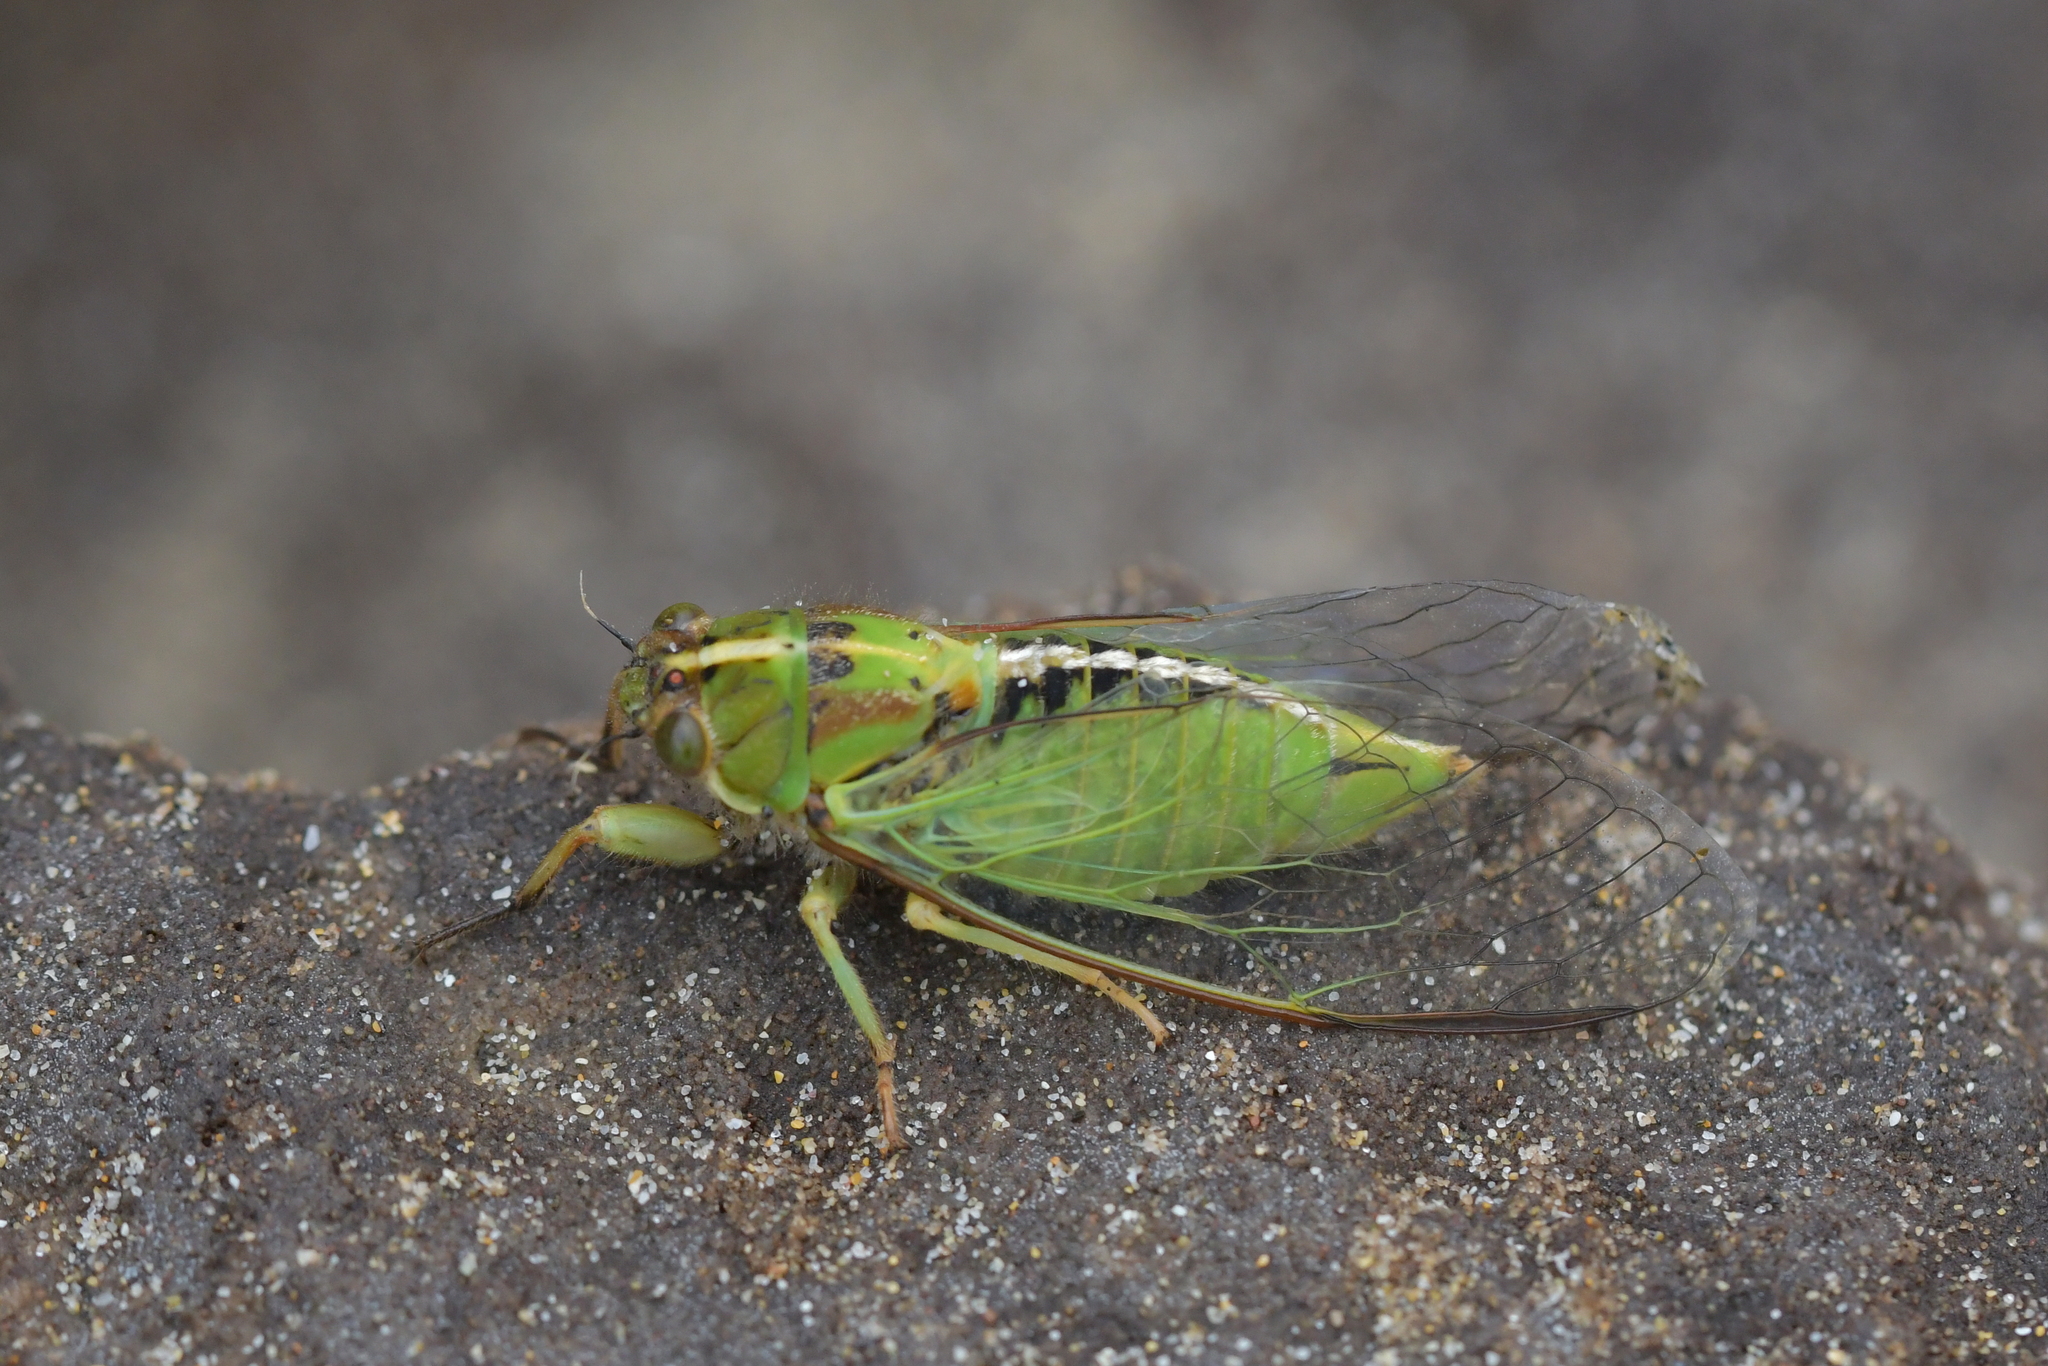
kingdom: Animalia
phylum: Arthropoda
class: Insecta
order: Hemiptera
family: Cicadidae
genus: Kikihia
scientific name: Kikihia longula
